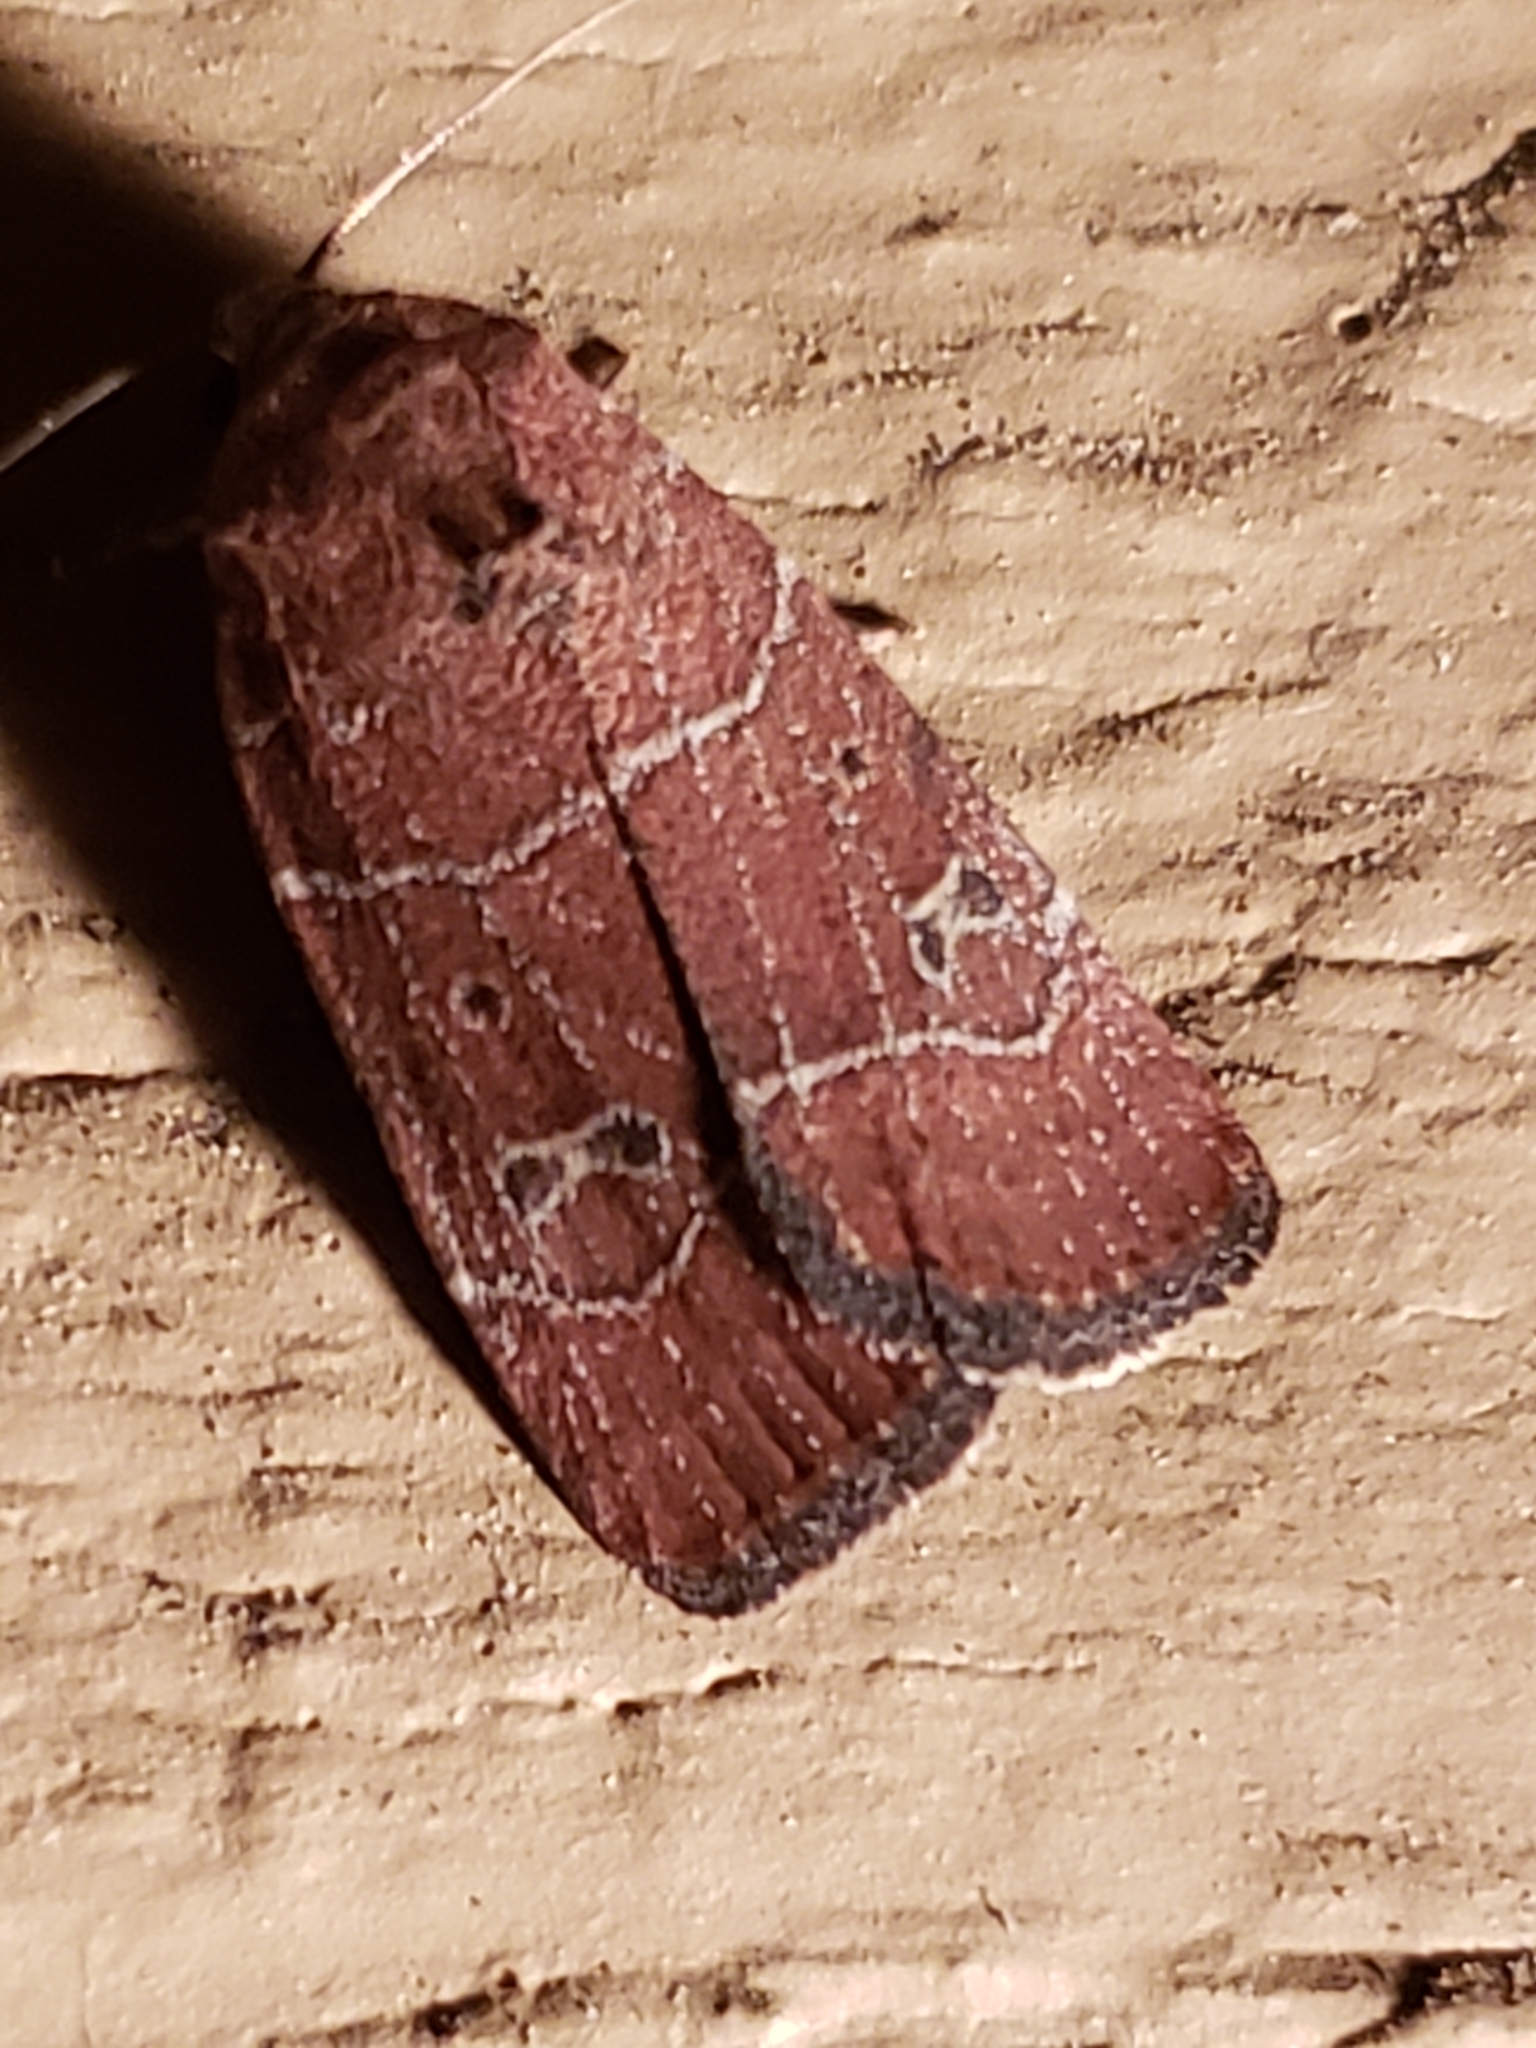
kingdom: Animalia
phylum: Arthropoda
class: Insecta
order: Lepidoptera
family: Noctuidae
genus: Elaphria
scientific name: Elaphria grata
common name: Grateful midget moth
